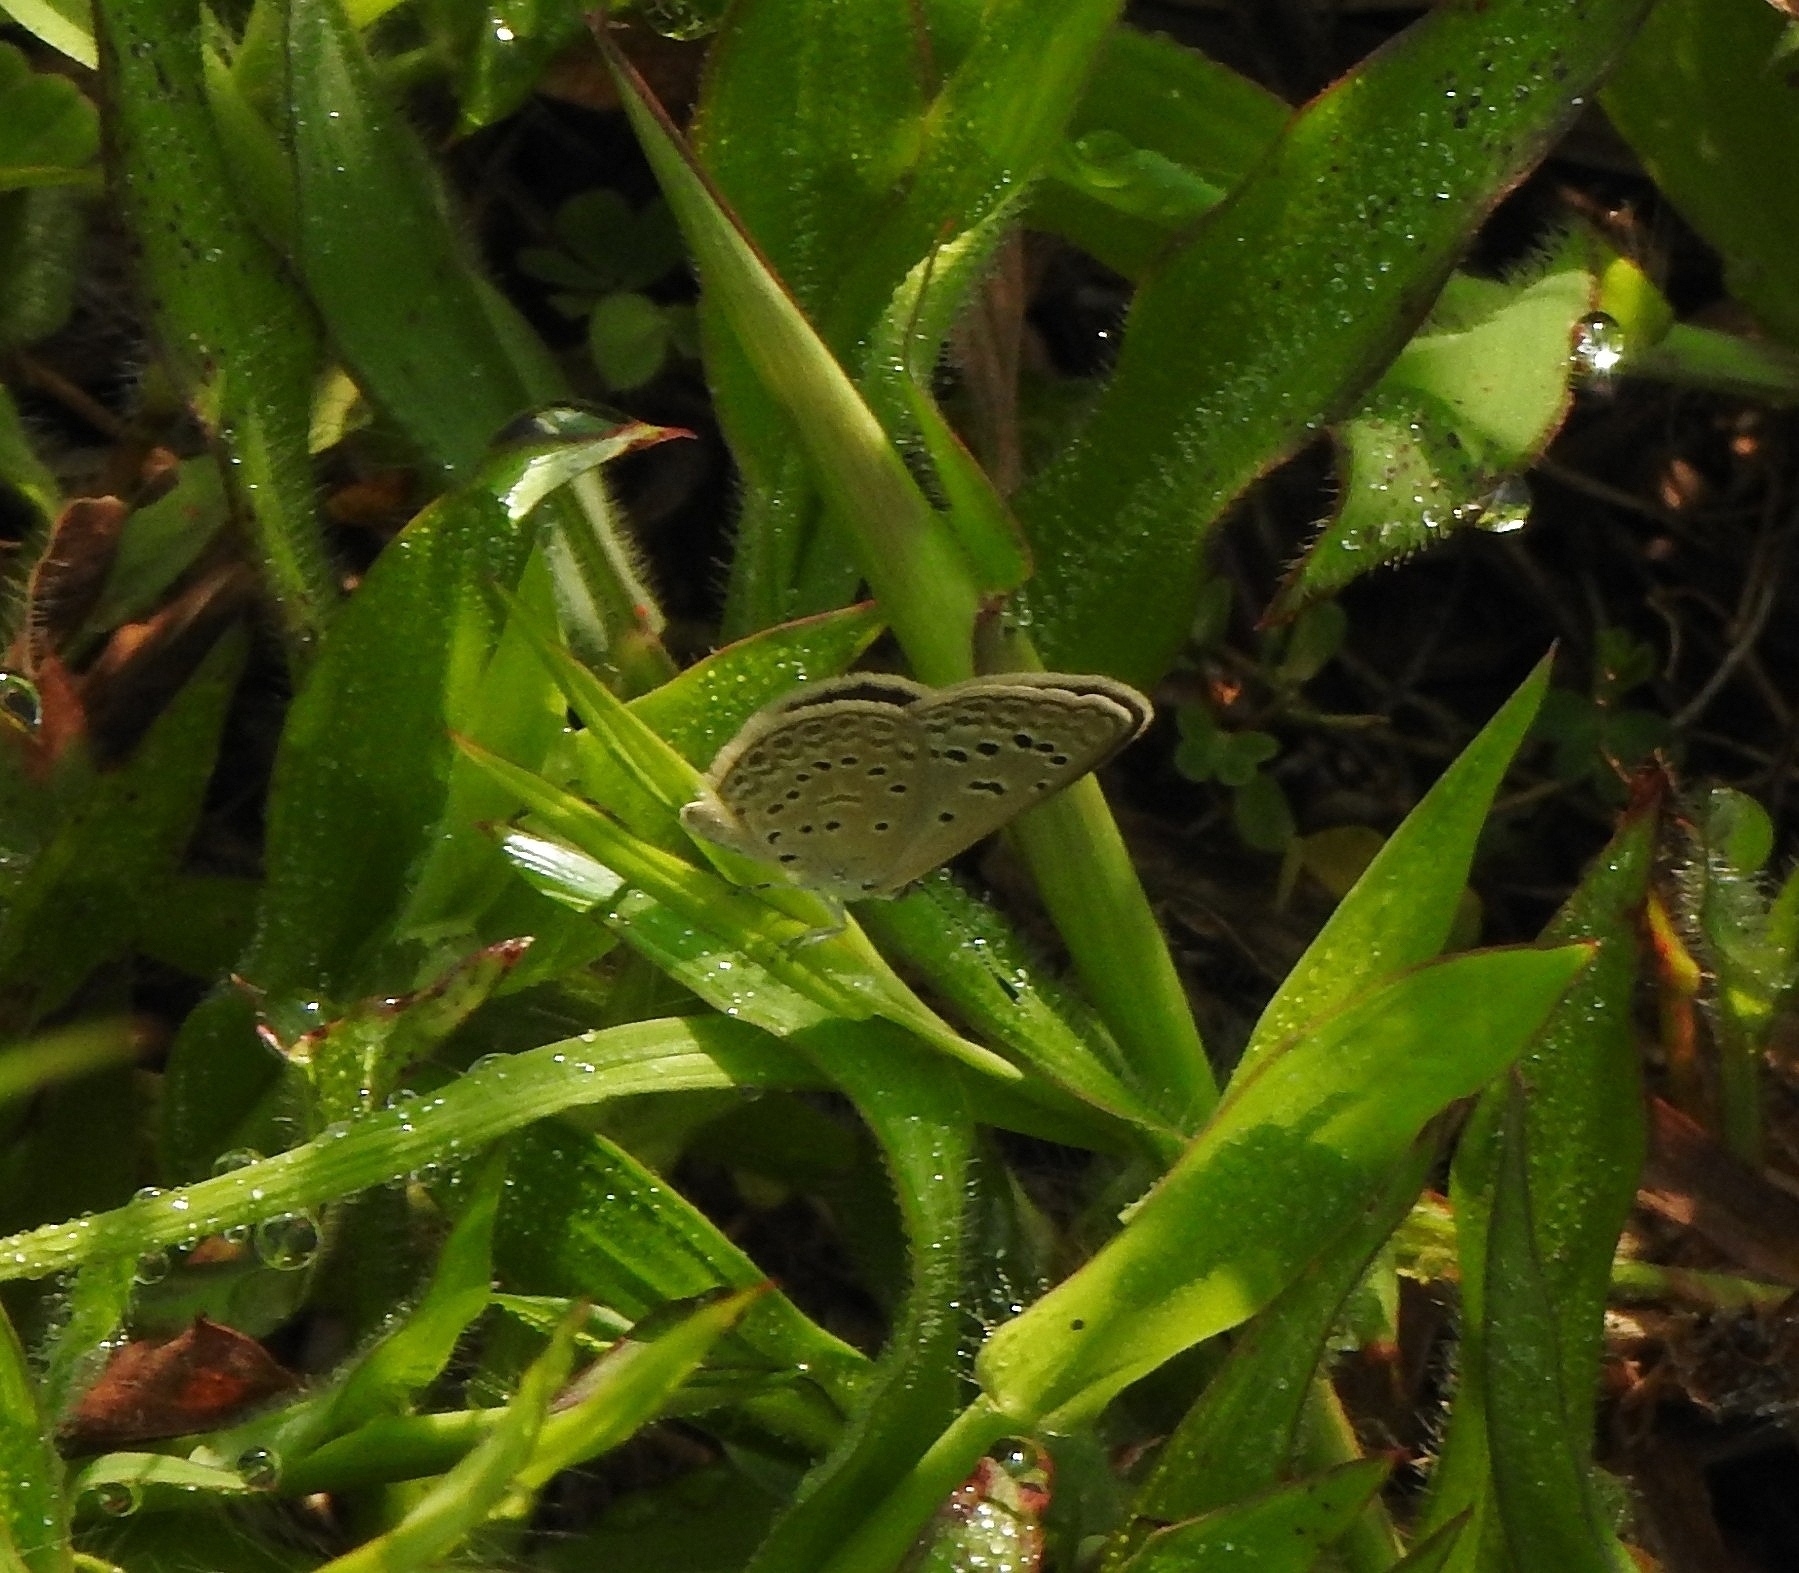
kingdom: Animalia
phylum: Arthropoda
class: Insecta
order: Lepidoptera
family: Lycaenidae
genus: Zizeeria
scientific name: Zizeeria karsandra
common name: Dark grass blue
